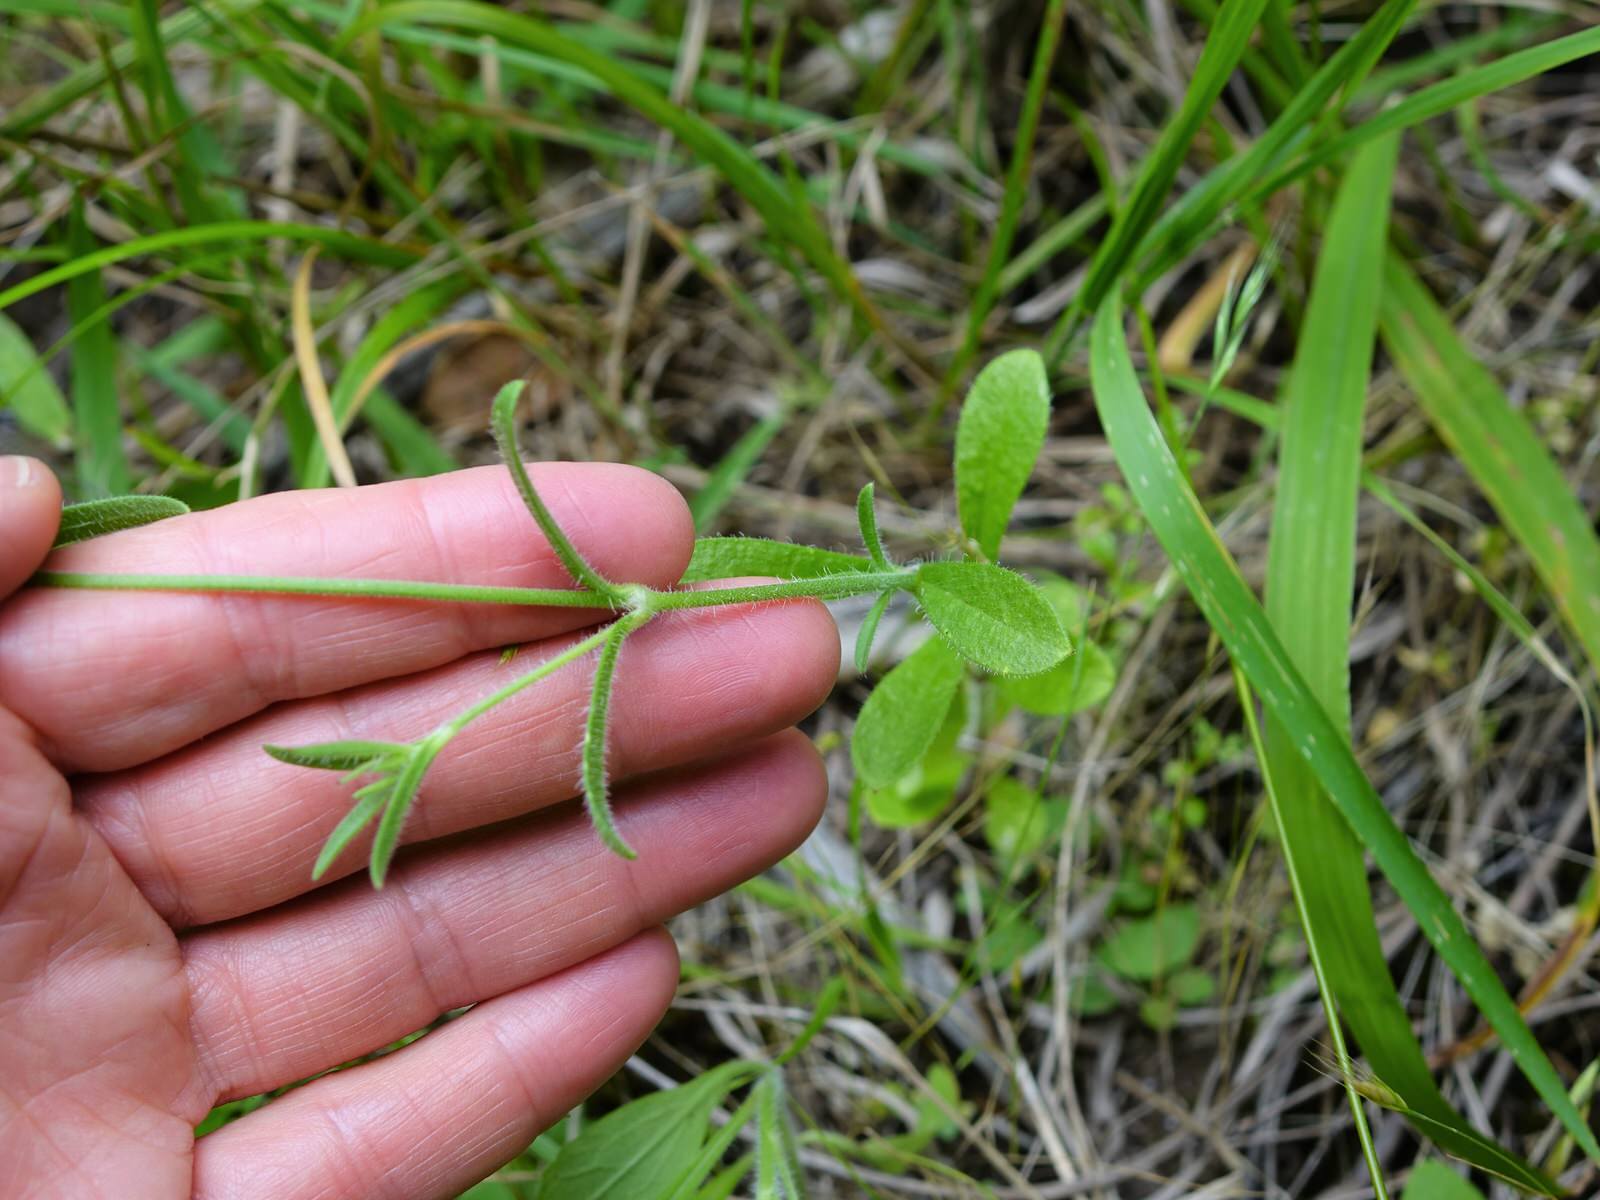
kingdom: Plantae
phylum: Tracheophyta
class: Magnoliopsida
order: Caryophyllales
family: Caryophyllaceae
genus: Silene
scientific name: Silene gallica
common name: Small-flowered catchfly
